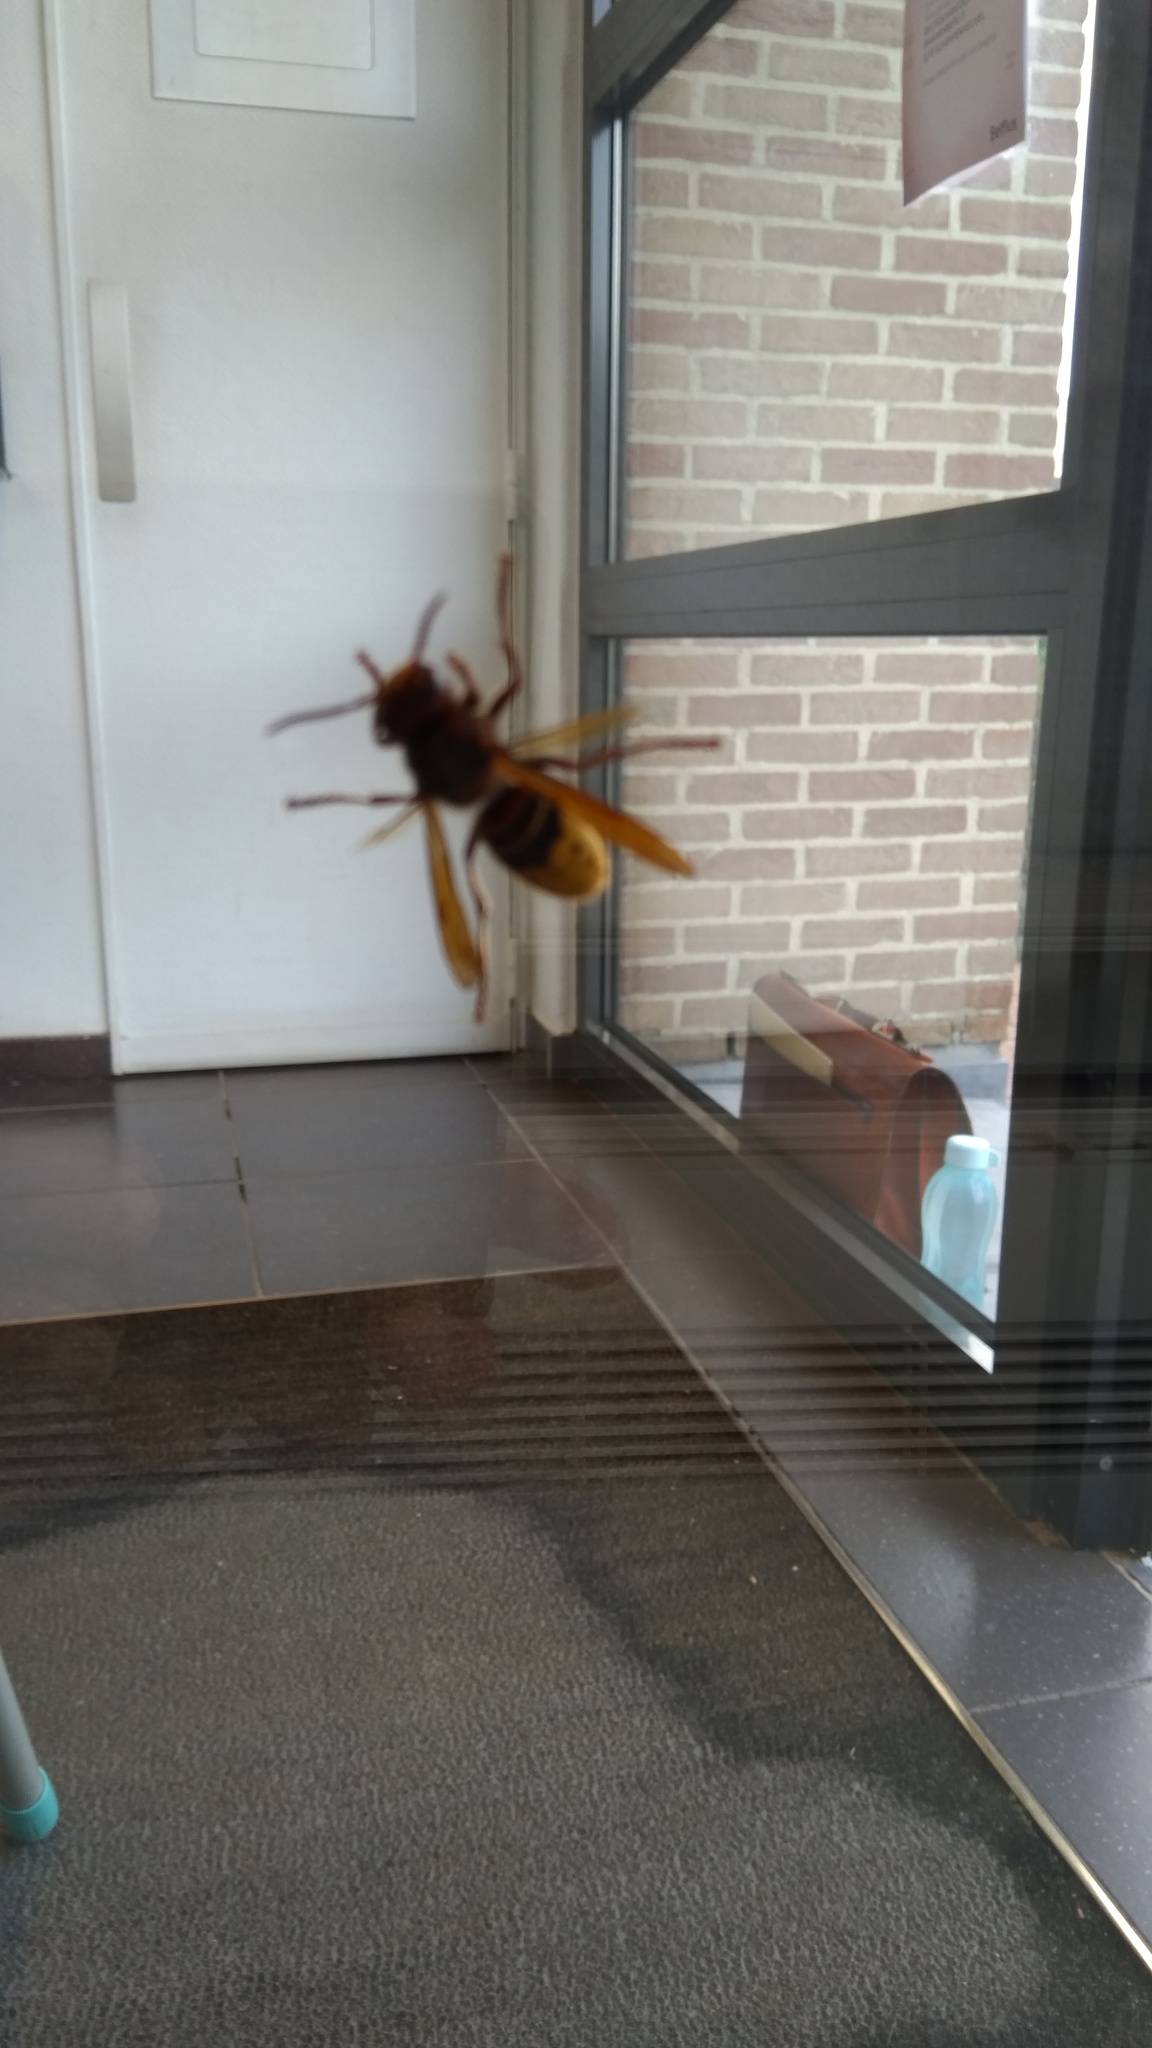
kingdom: Animalia
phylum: Arthropoda
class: Insecta
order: Hymenoptera
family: Vespidae
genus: Vespa
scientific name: Vespa crabro
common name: Hornet
